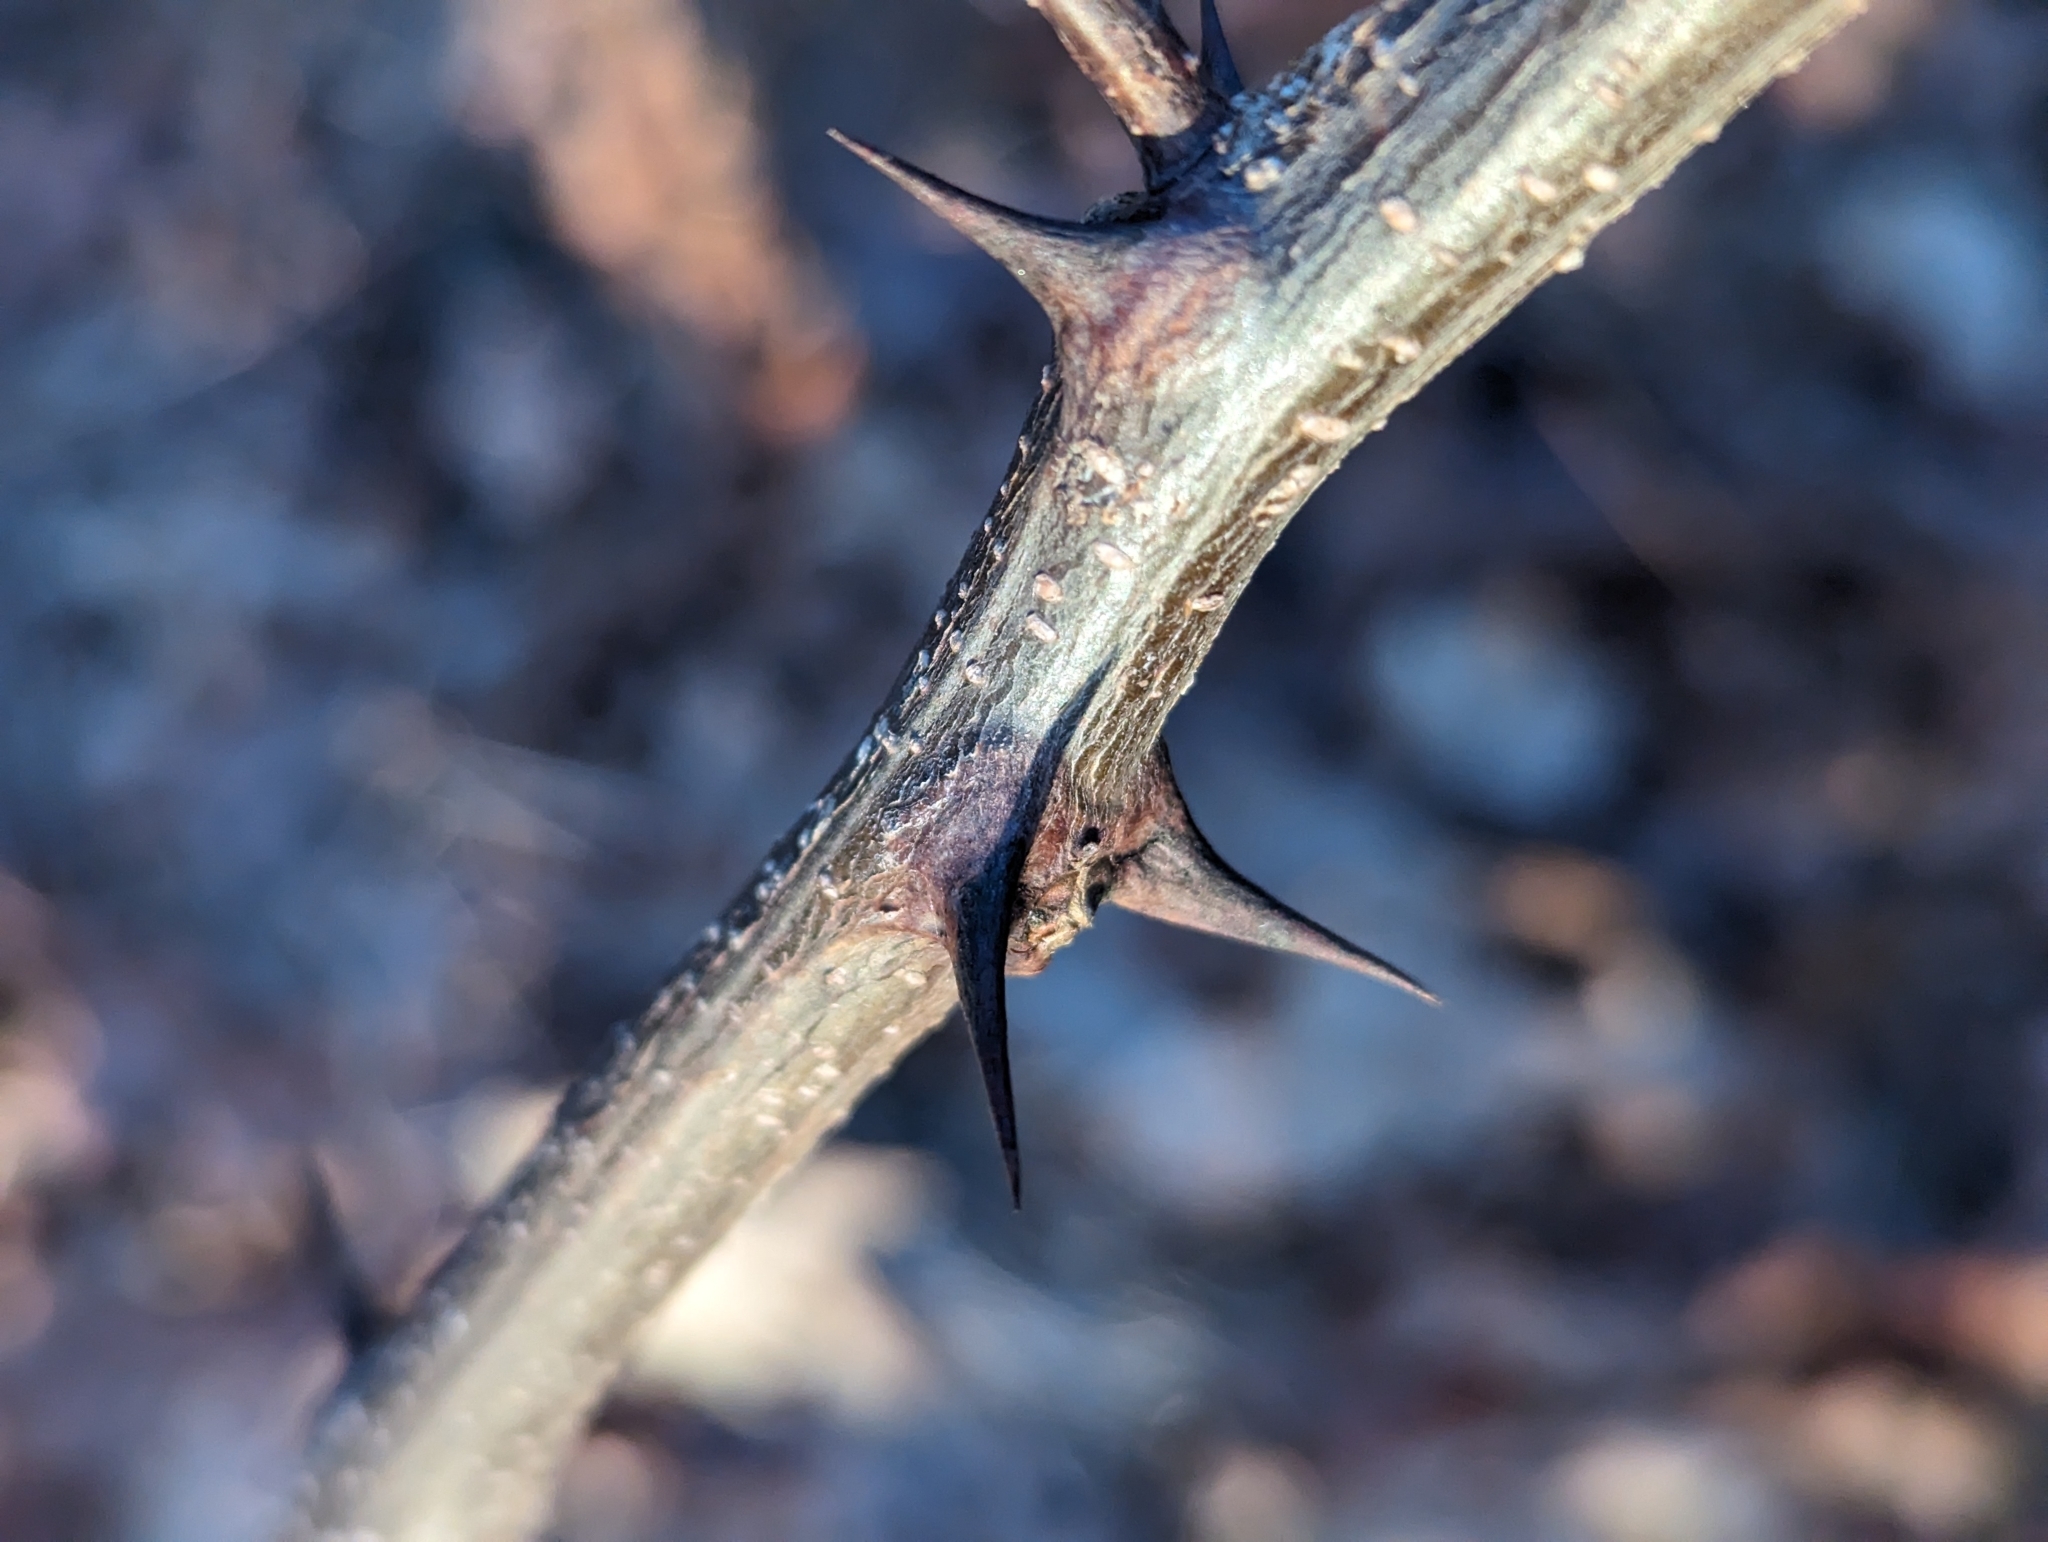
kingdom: Plantae
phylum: Tracheophyta
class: Magnoliopsida
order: Fabales
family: Fabaceae
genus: Robinia
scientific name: Robinia pseudoacacia
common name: Black locust
